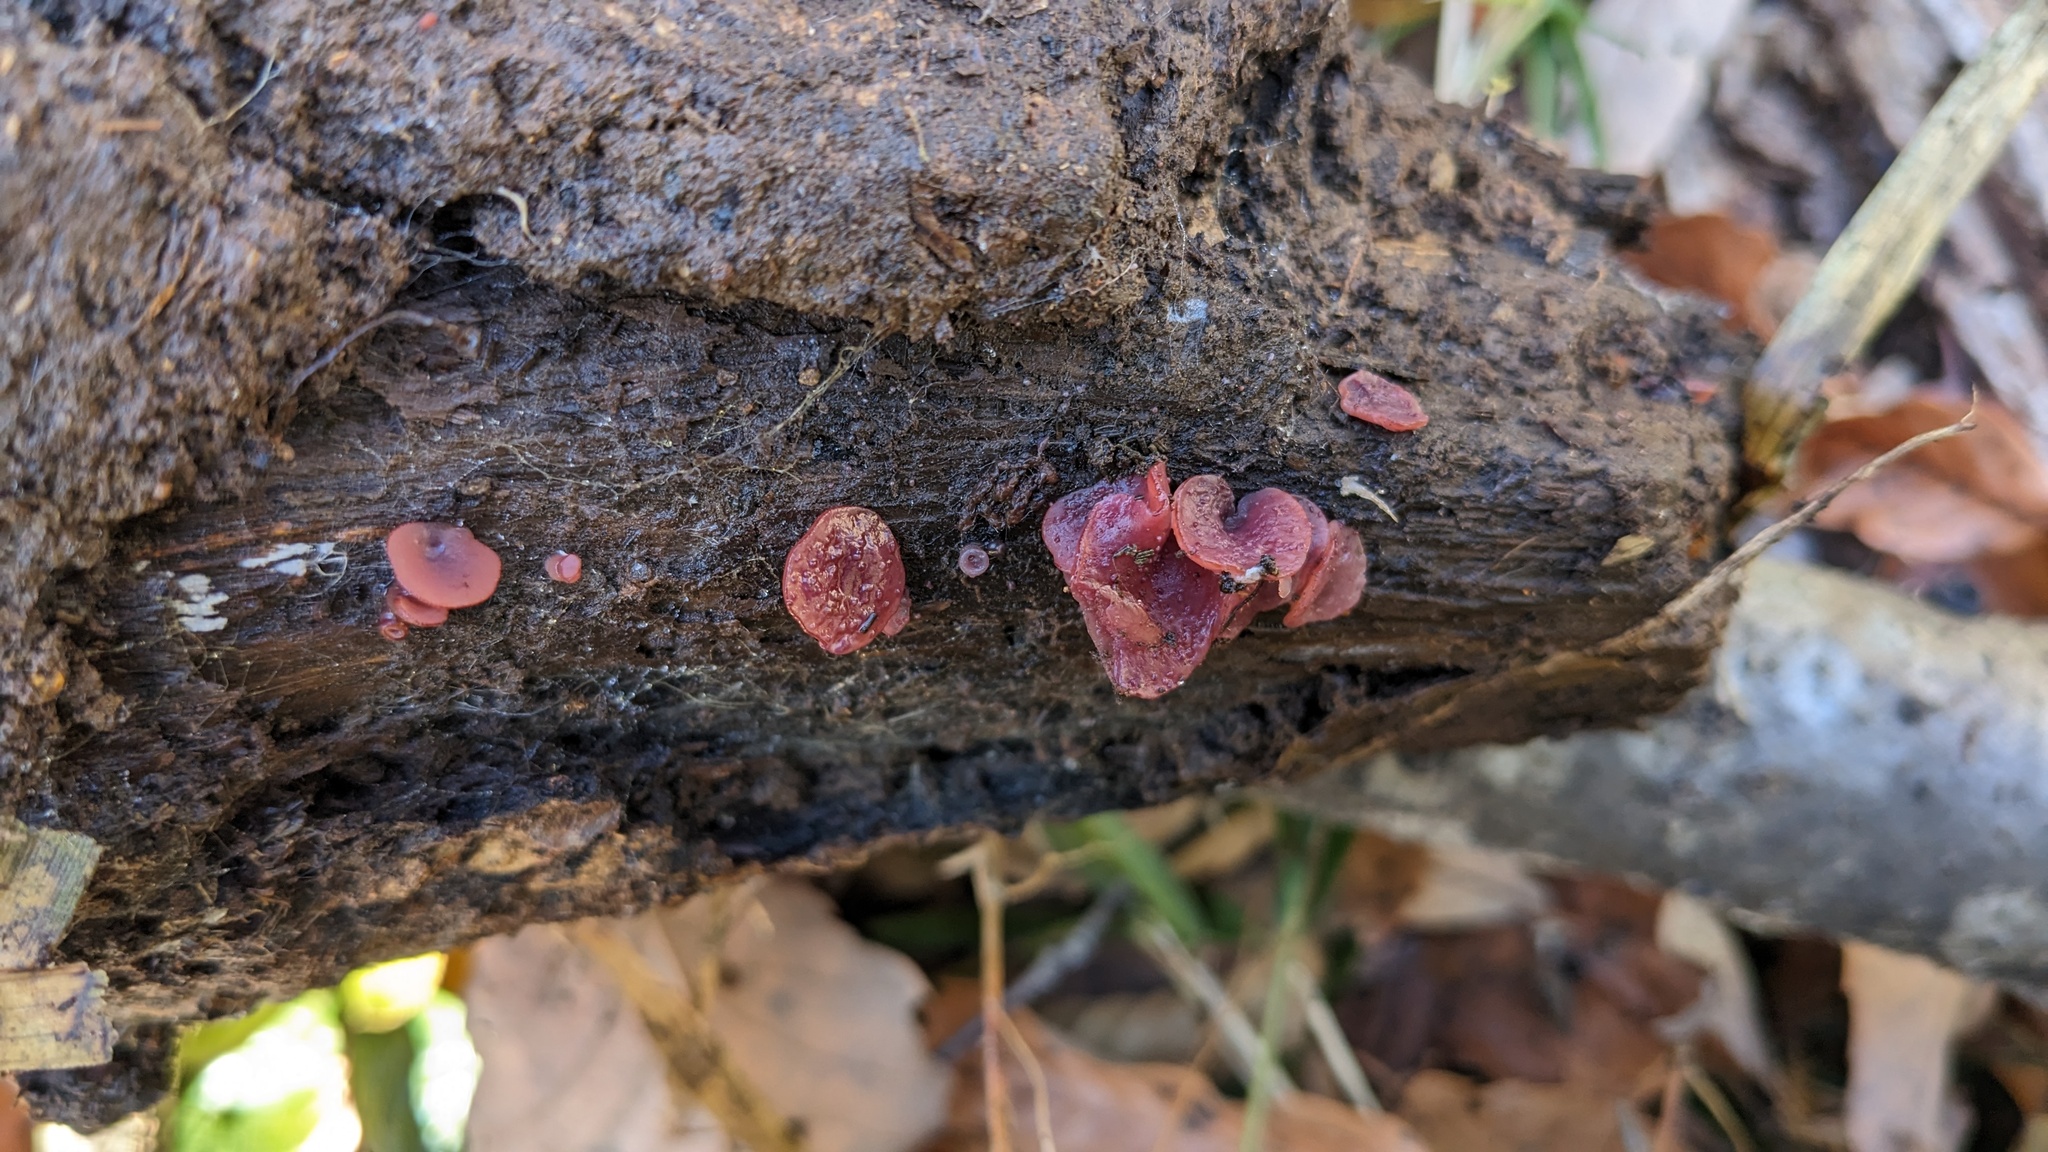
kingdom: Fungi
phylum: Ascomycota
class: Leotiomycetes
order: Helotiales
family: Gelatinodiscaceae
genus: Ascocoryne
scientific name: Ascocoryne cylichnium
